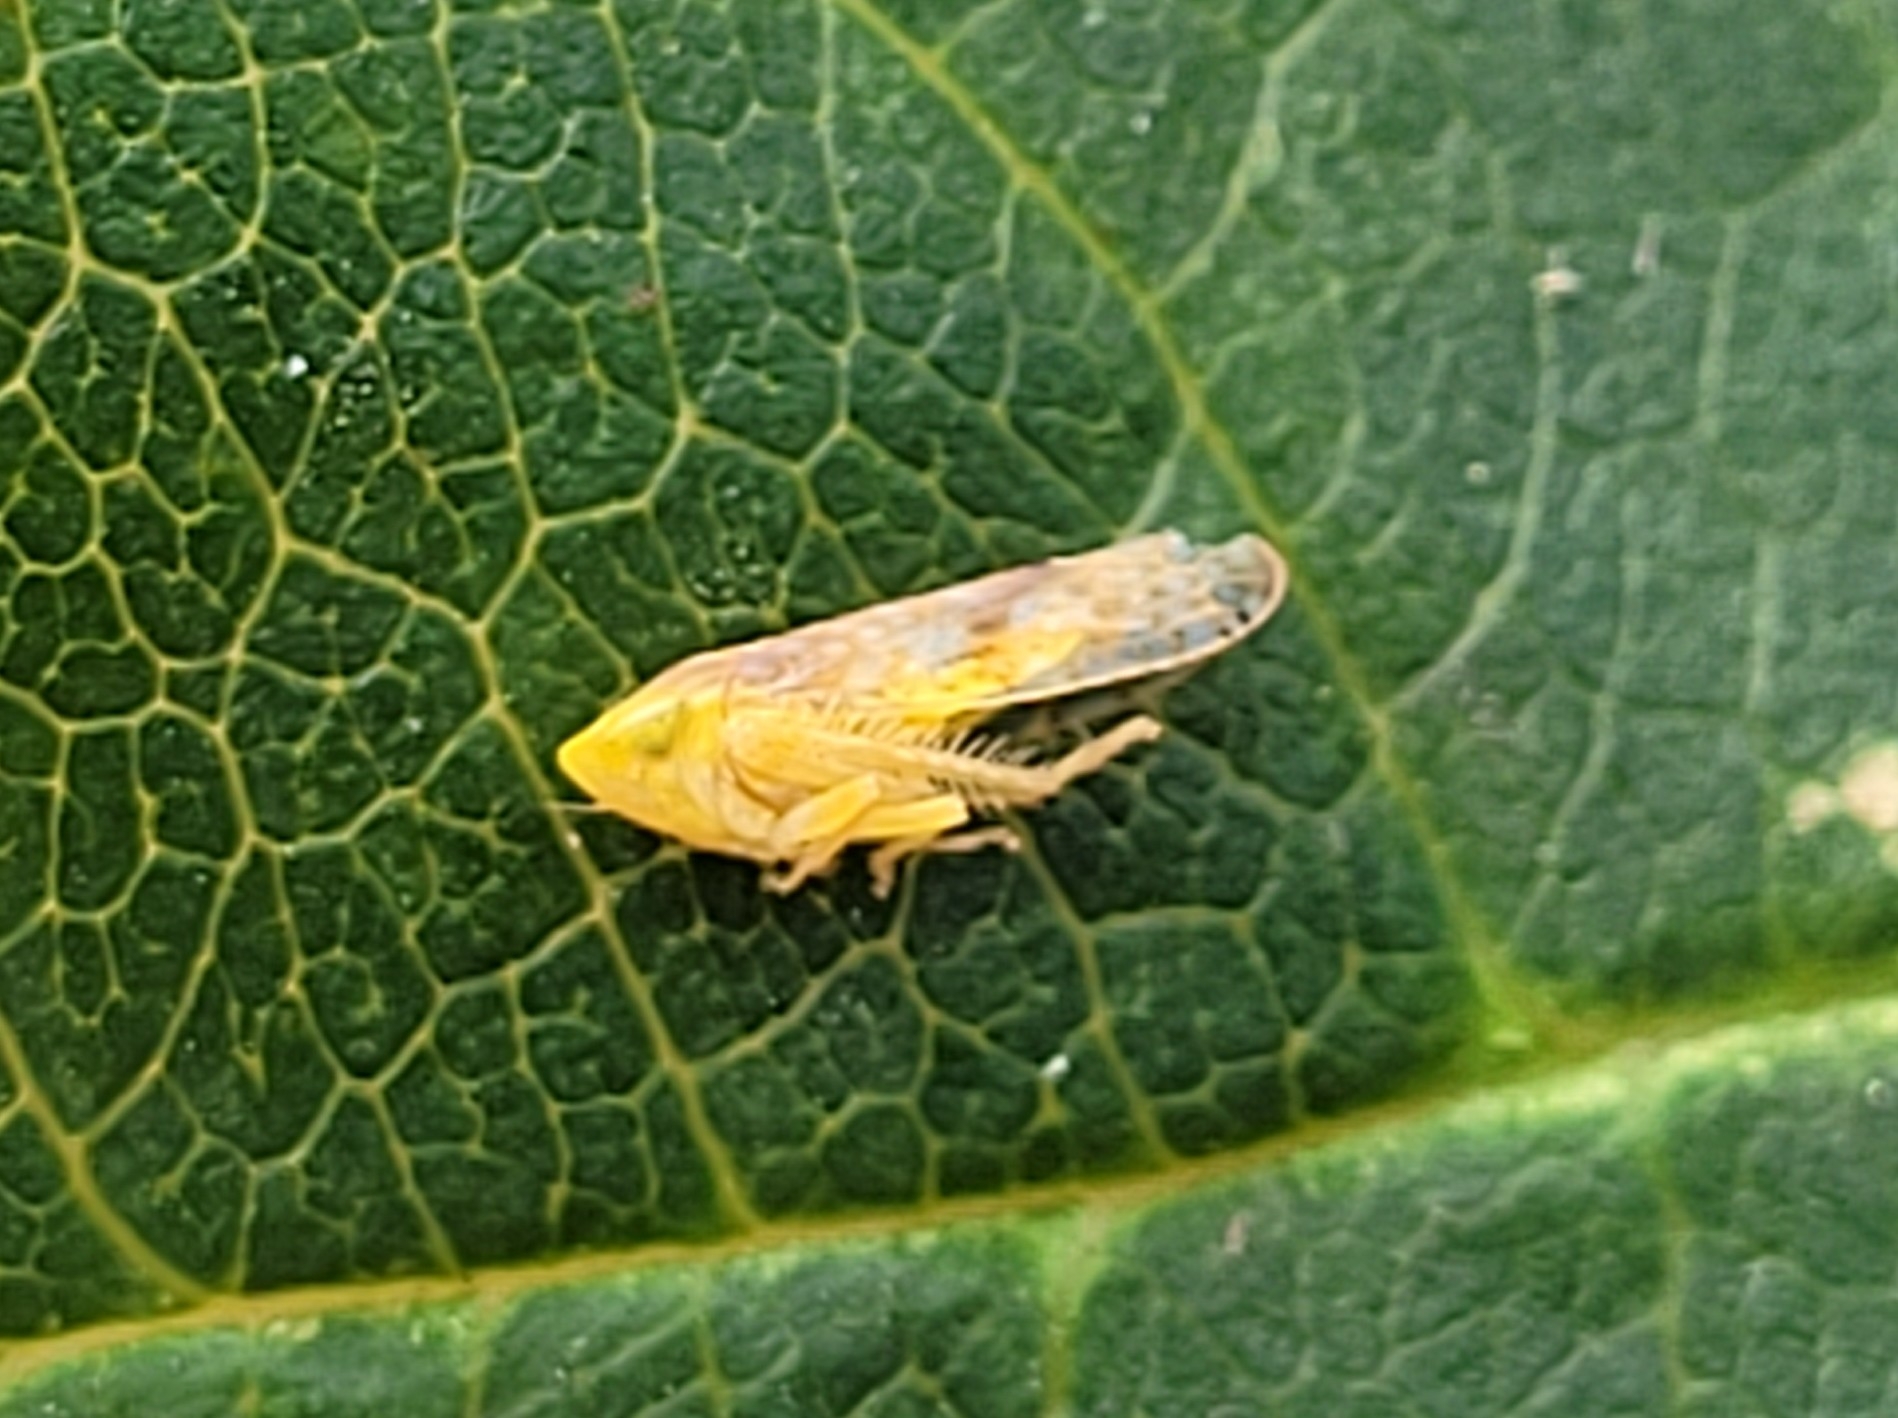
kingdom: Animalia
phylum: Arthropoda
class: Insecta
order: Hemiptera
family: Cicadellidae
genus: Fitchana
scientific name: Fitchana vitellina
